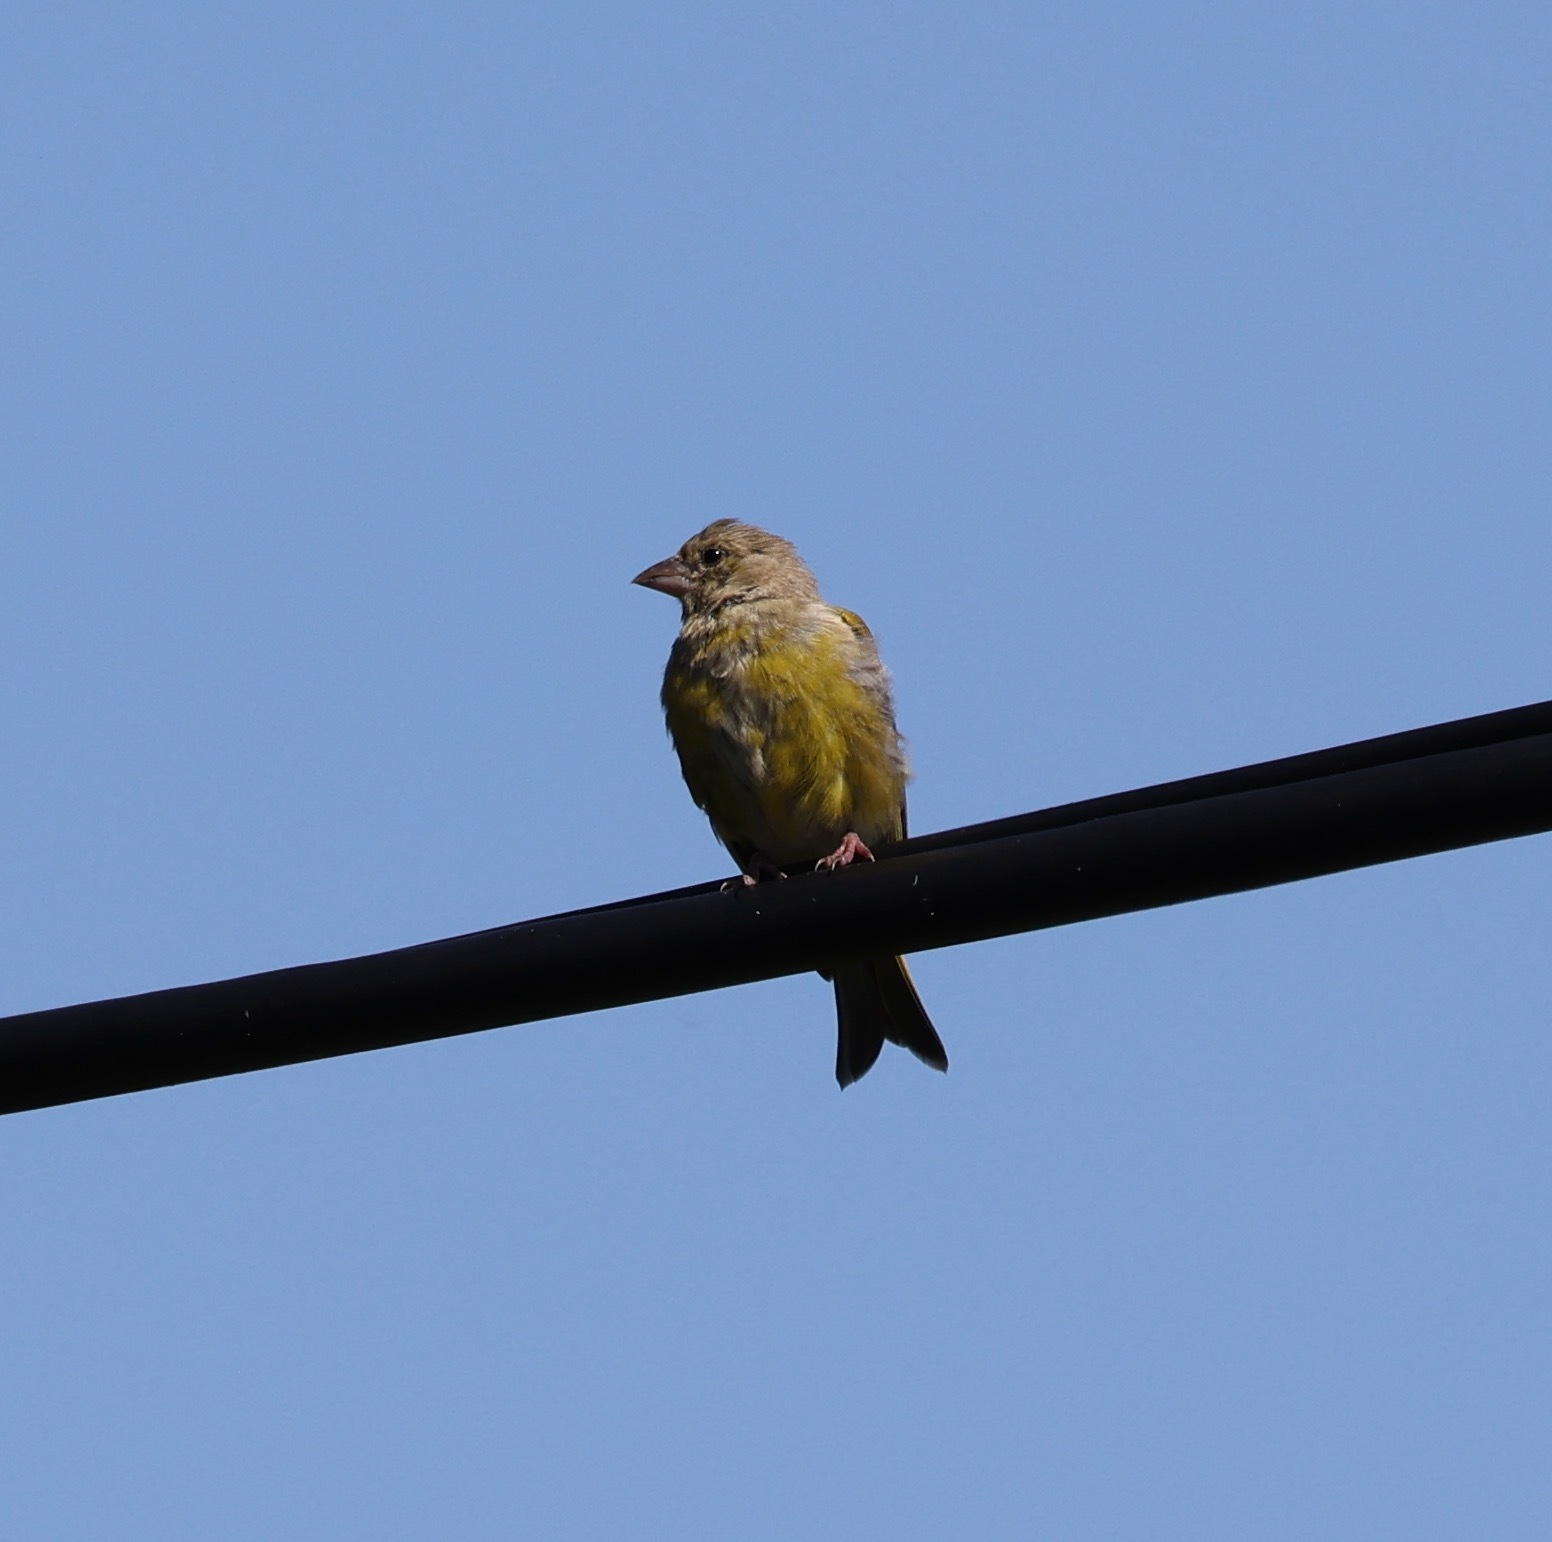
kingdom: Plantae
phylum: Tracheophyta
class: Liliopsida
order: Poales
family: Poaceae
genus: Chloris
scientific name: Chloris chloris
